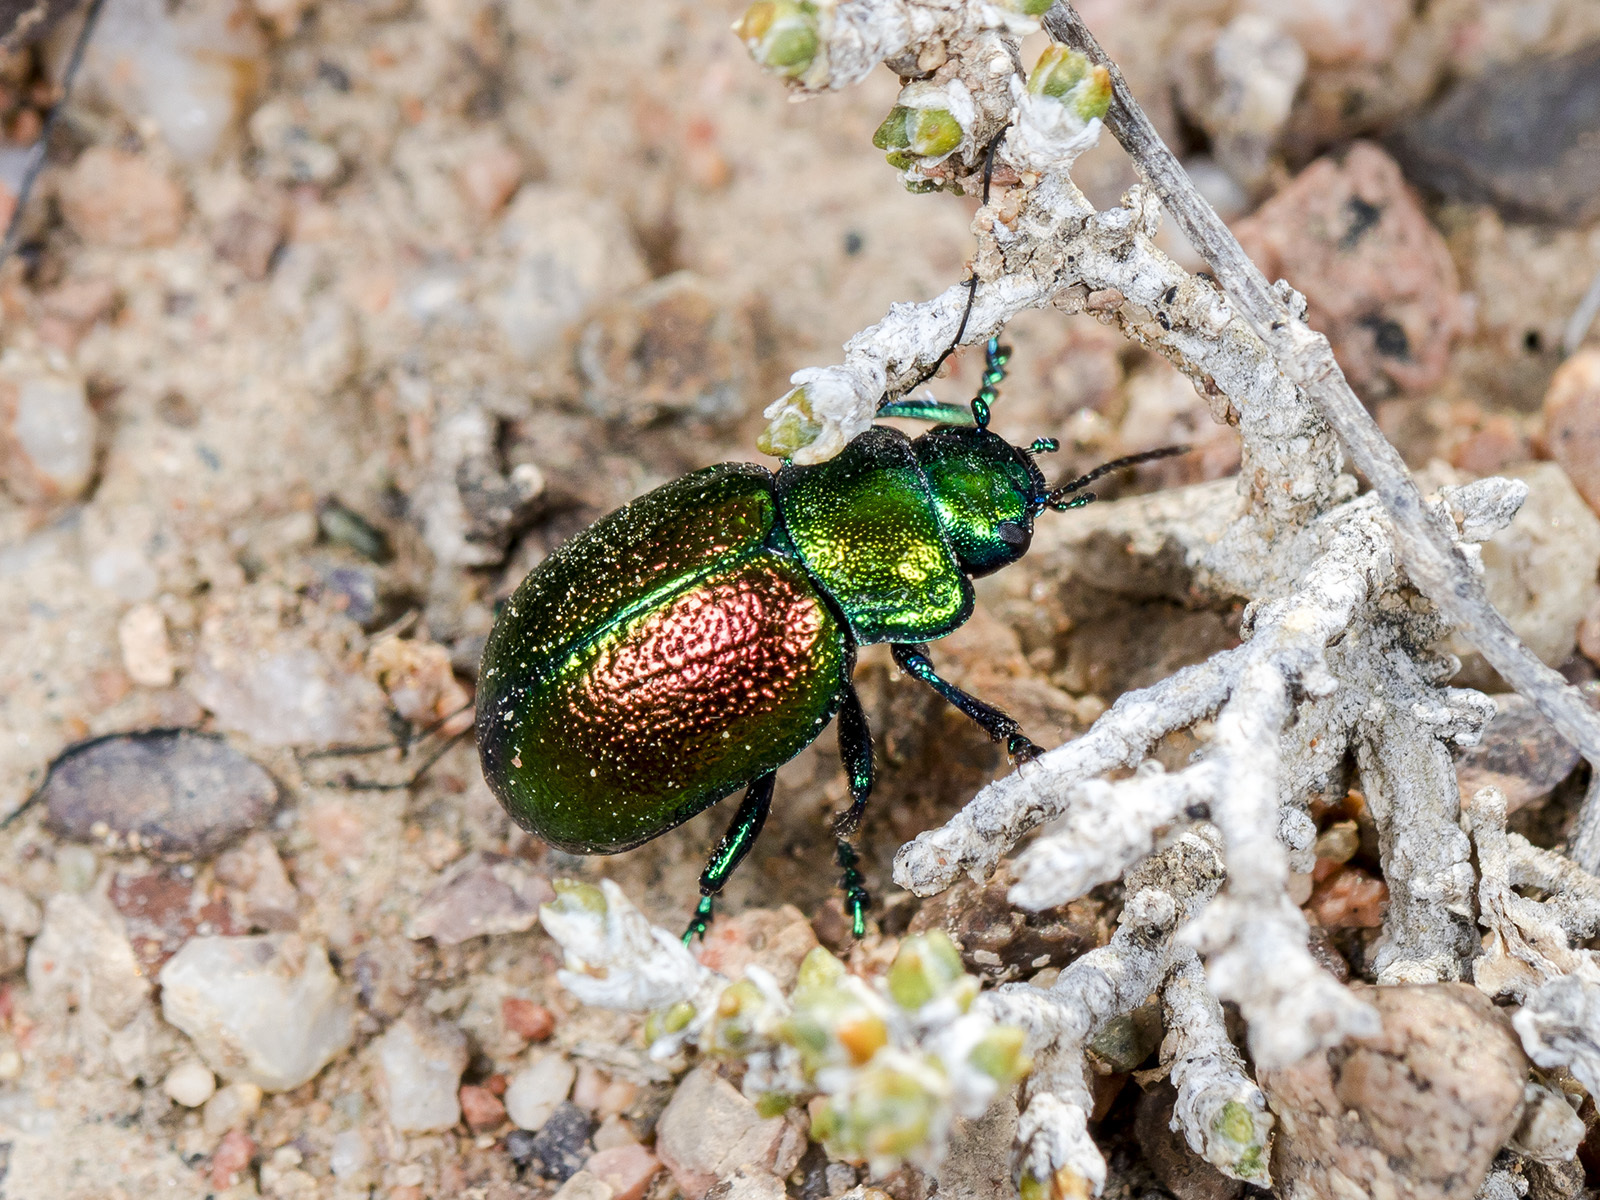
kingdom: Animalia
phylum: Arthropoda
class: Insecta
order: Coleoptera
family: Chrysomelidae
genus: Crosita
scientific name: Crosita
